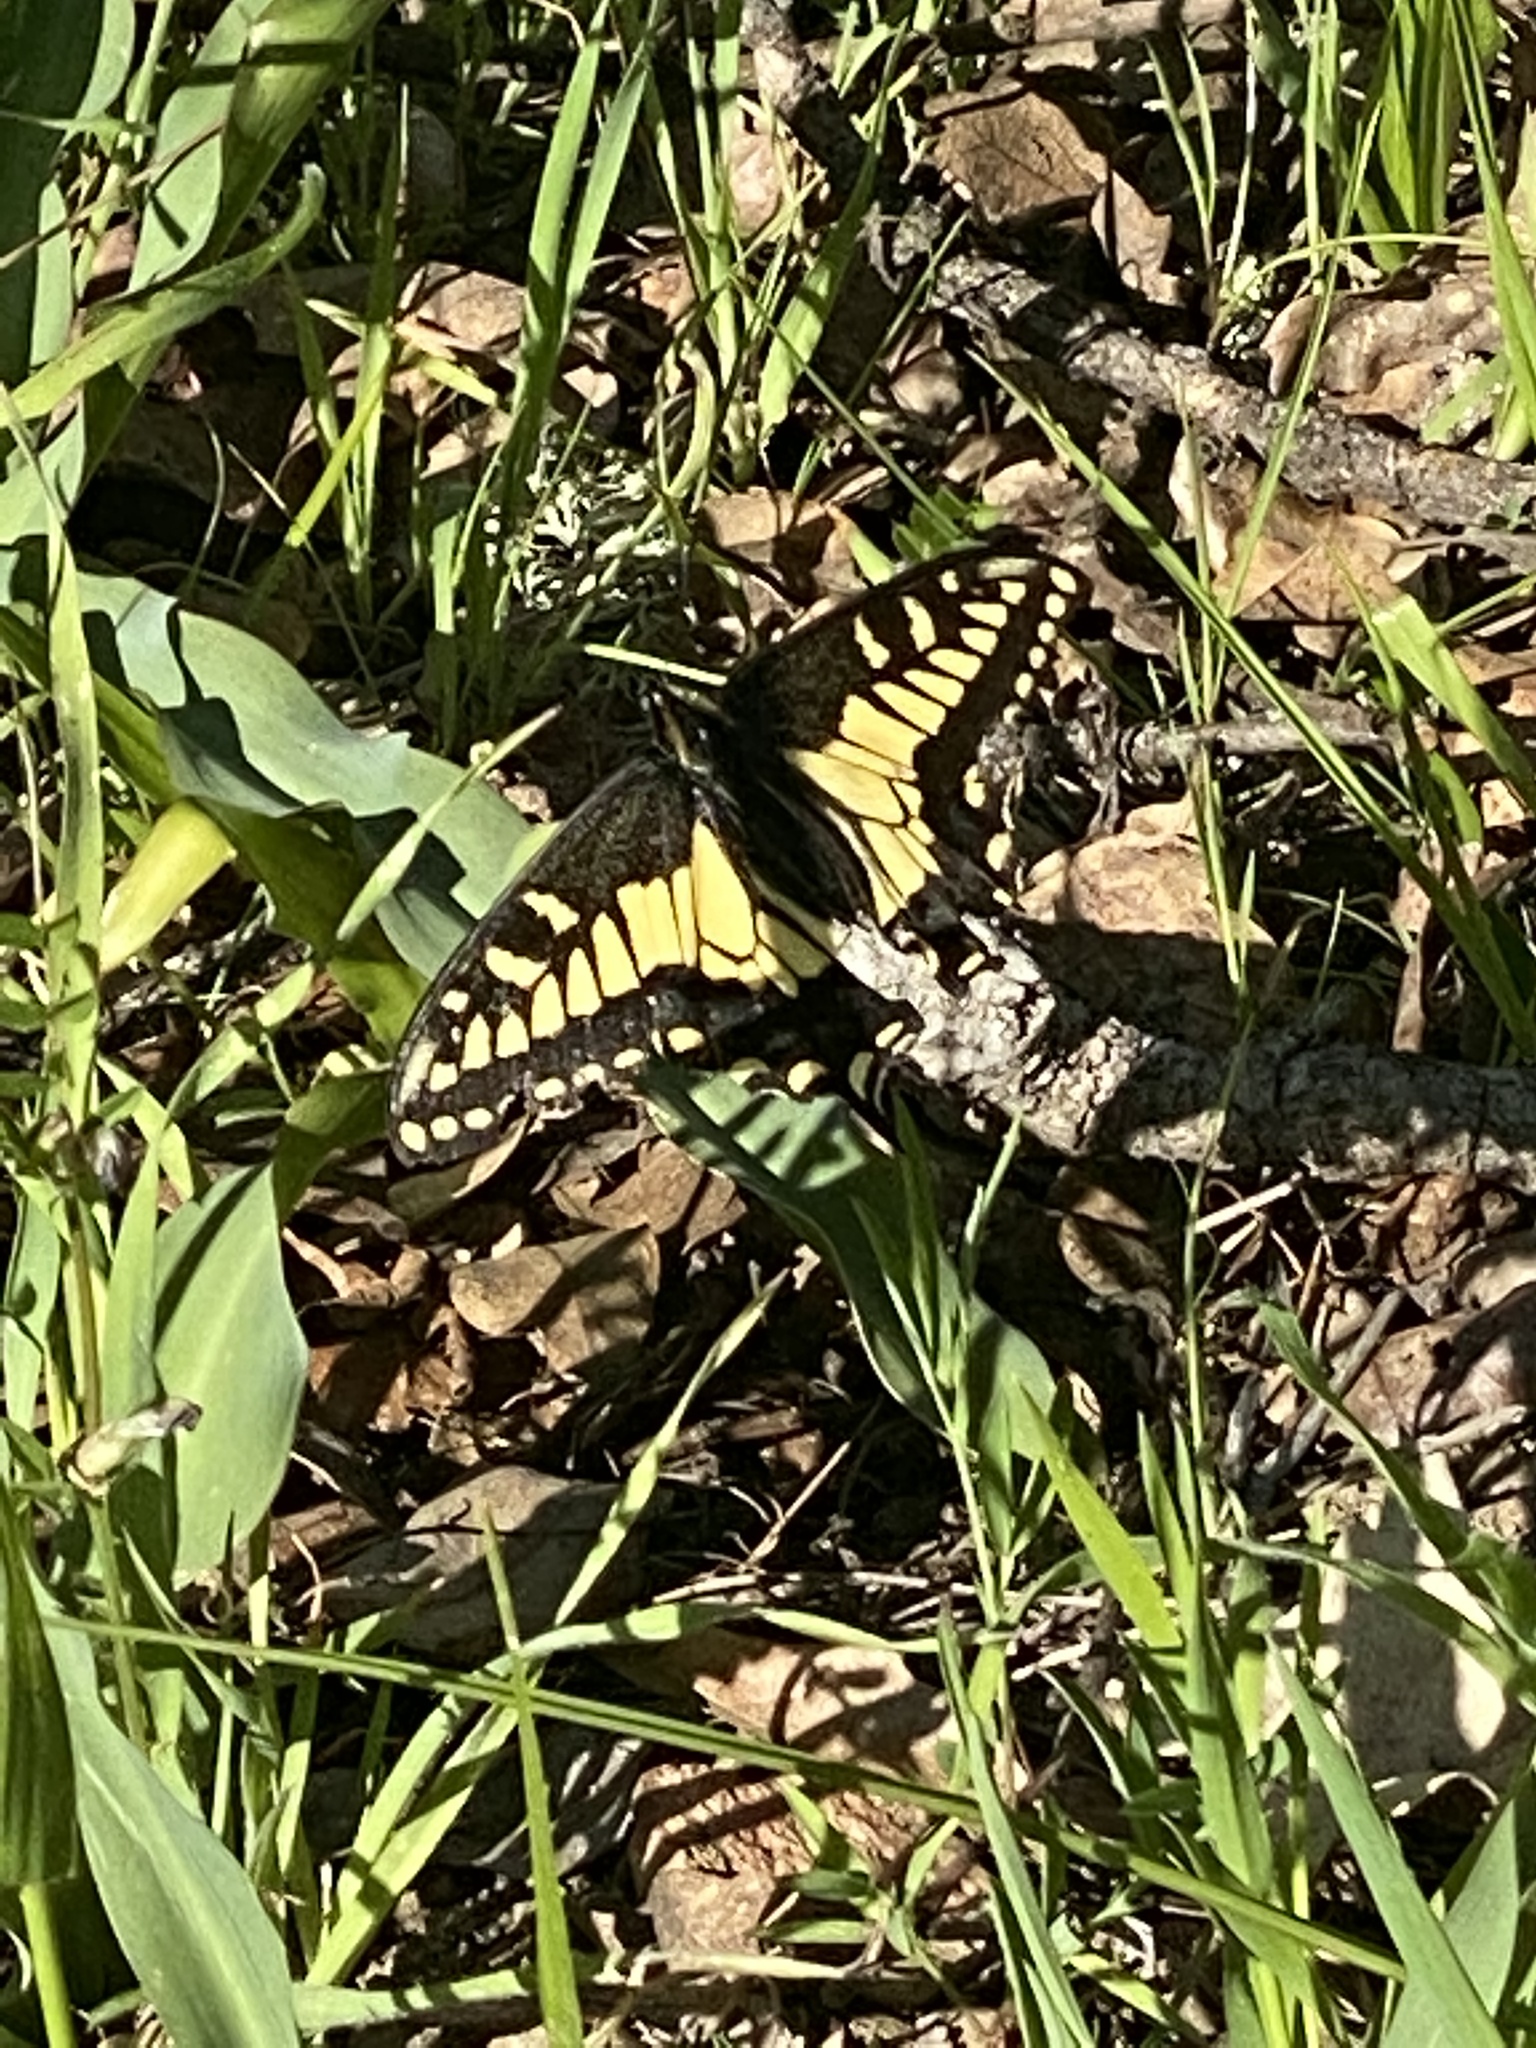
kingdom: Animalia
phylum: Arthropoda
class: Insecta
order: Lepidoptera
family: Papilionidae
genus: Papilio
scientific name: Papilio zelicaon
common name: Anise swallowtail
